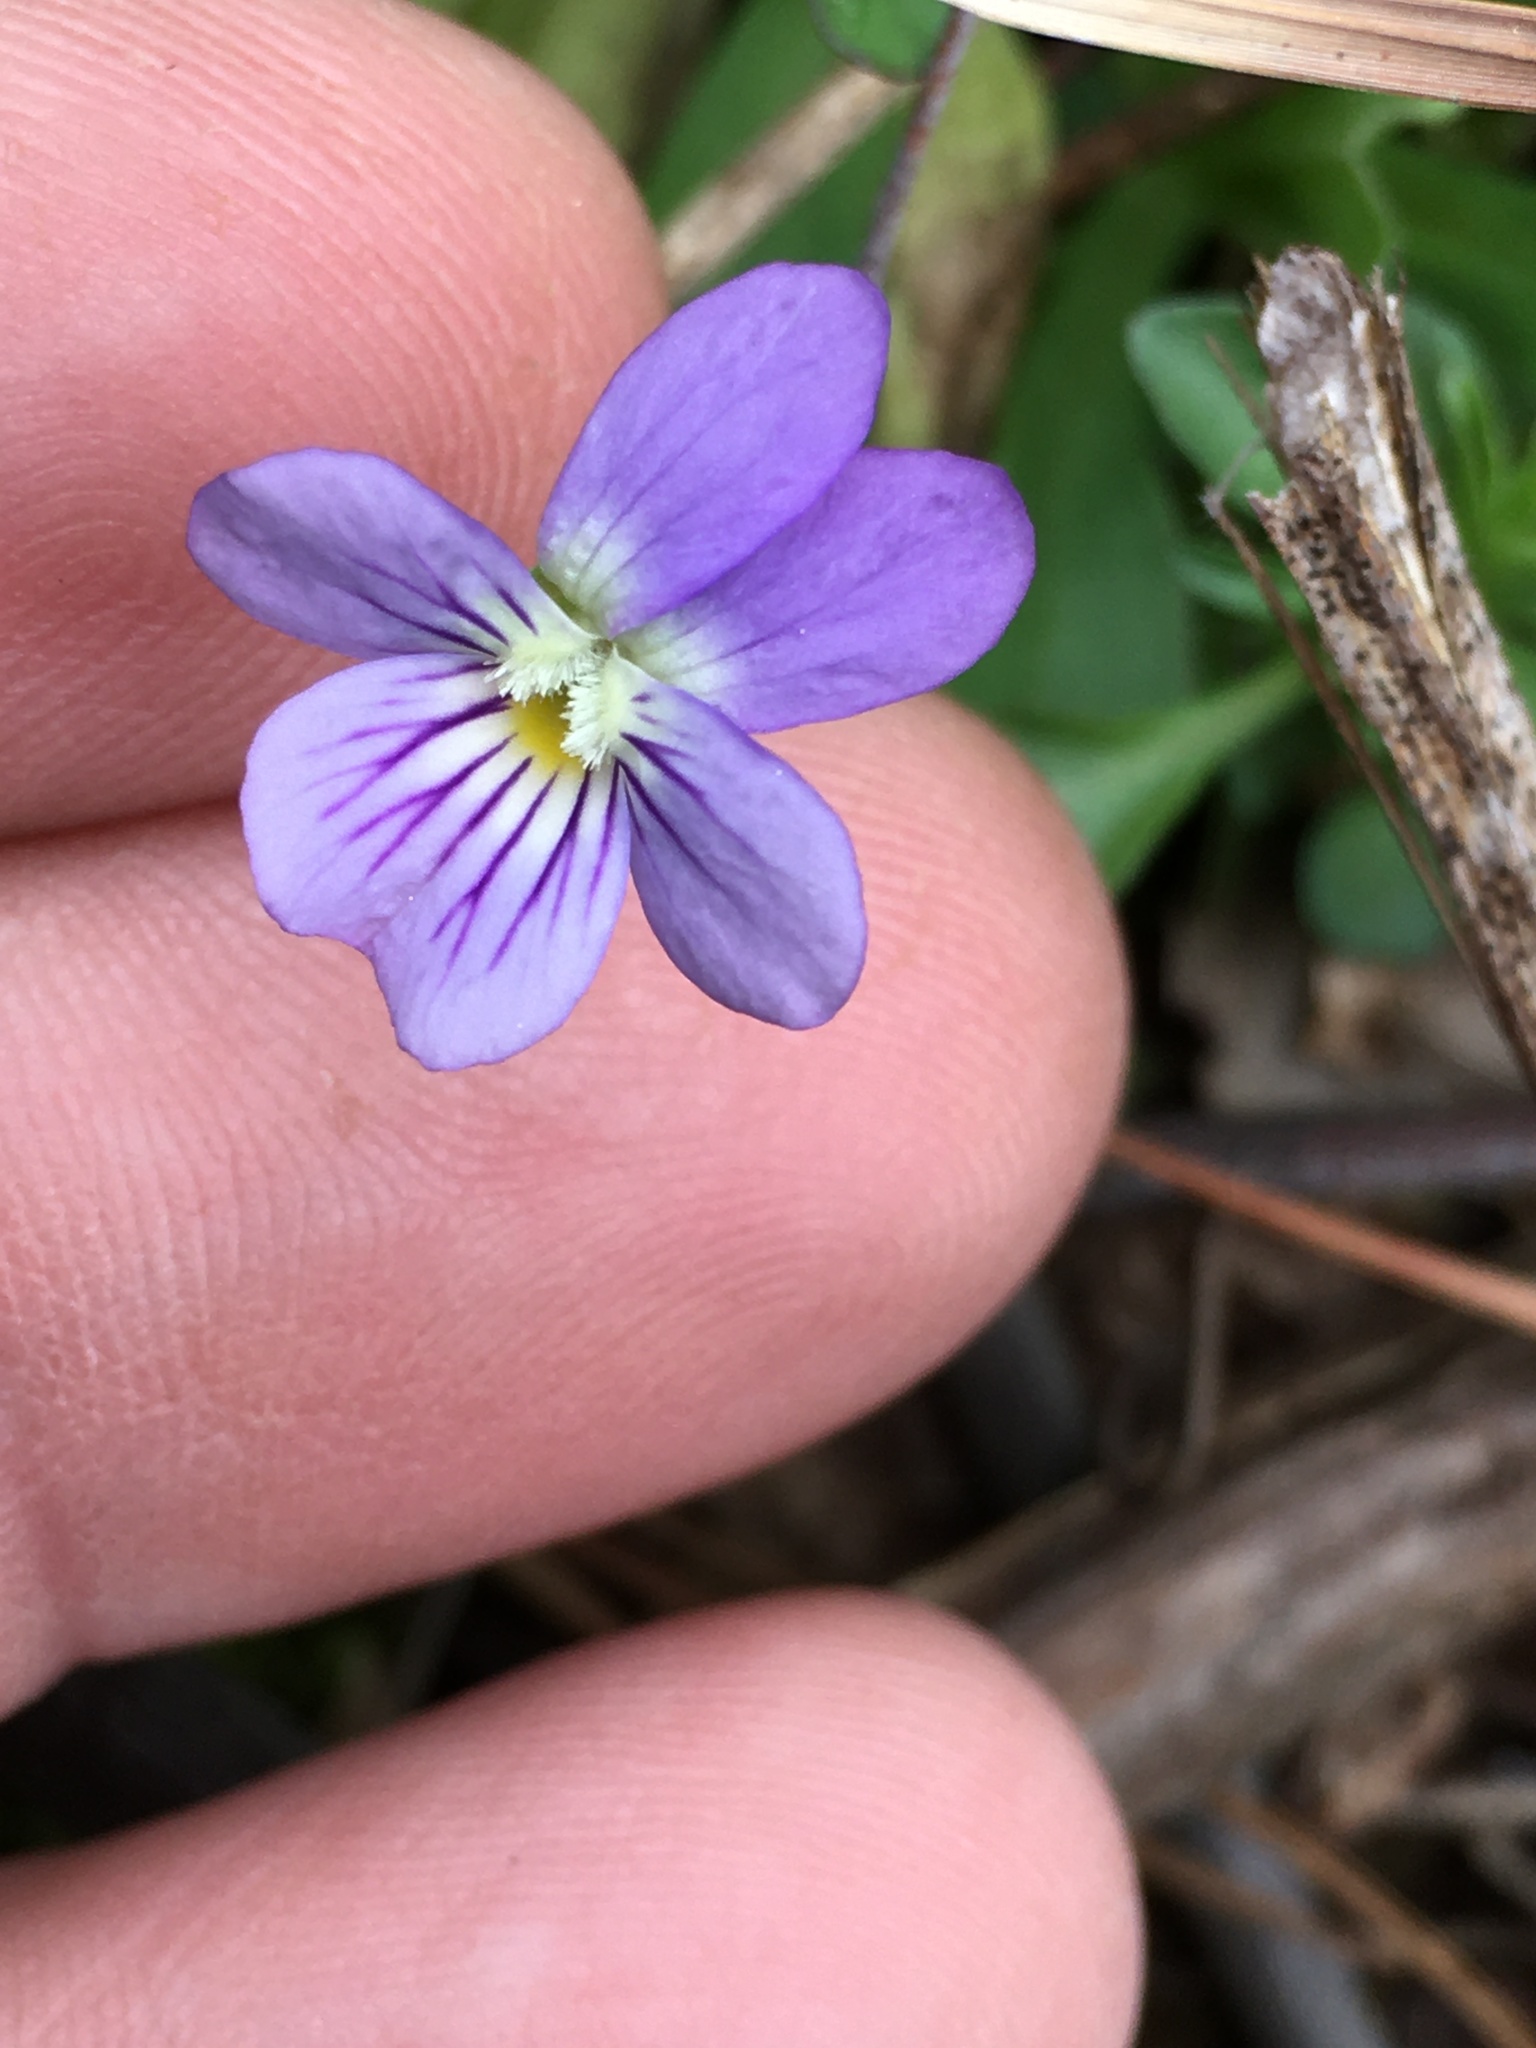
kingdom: Plantae
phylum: Tracheophyta
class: Magnoliopsida
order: Malpighiales
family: Violaceae
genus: Viola
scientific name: Viola rafinesquei
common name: American field pansy
